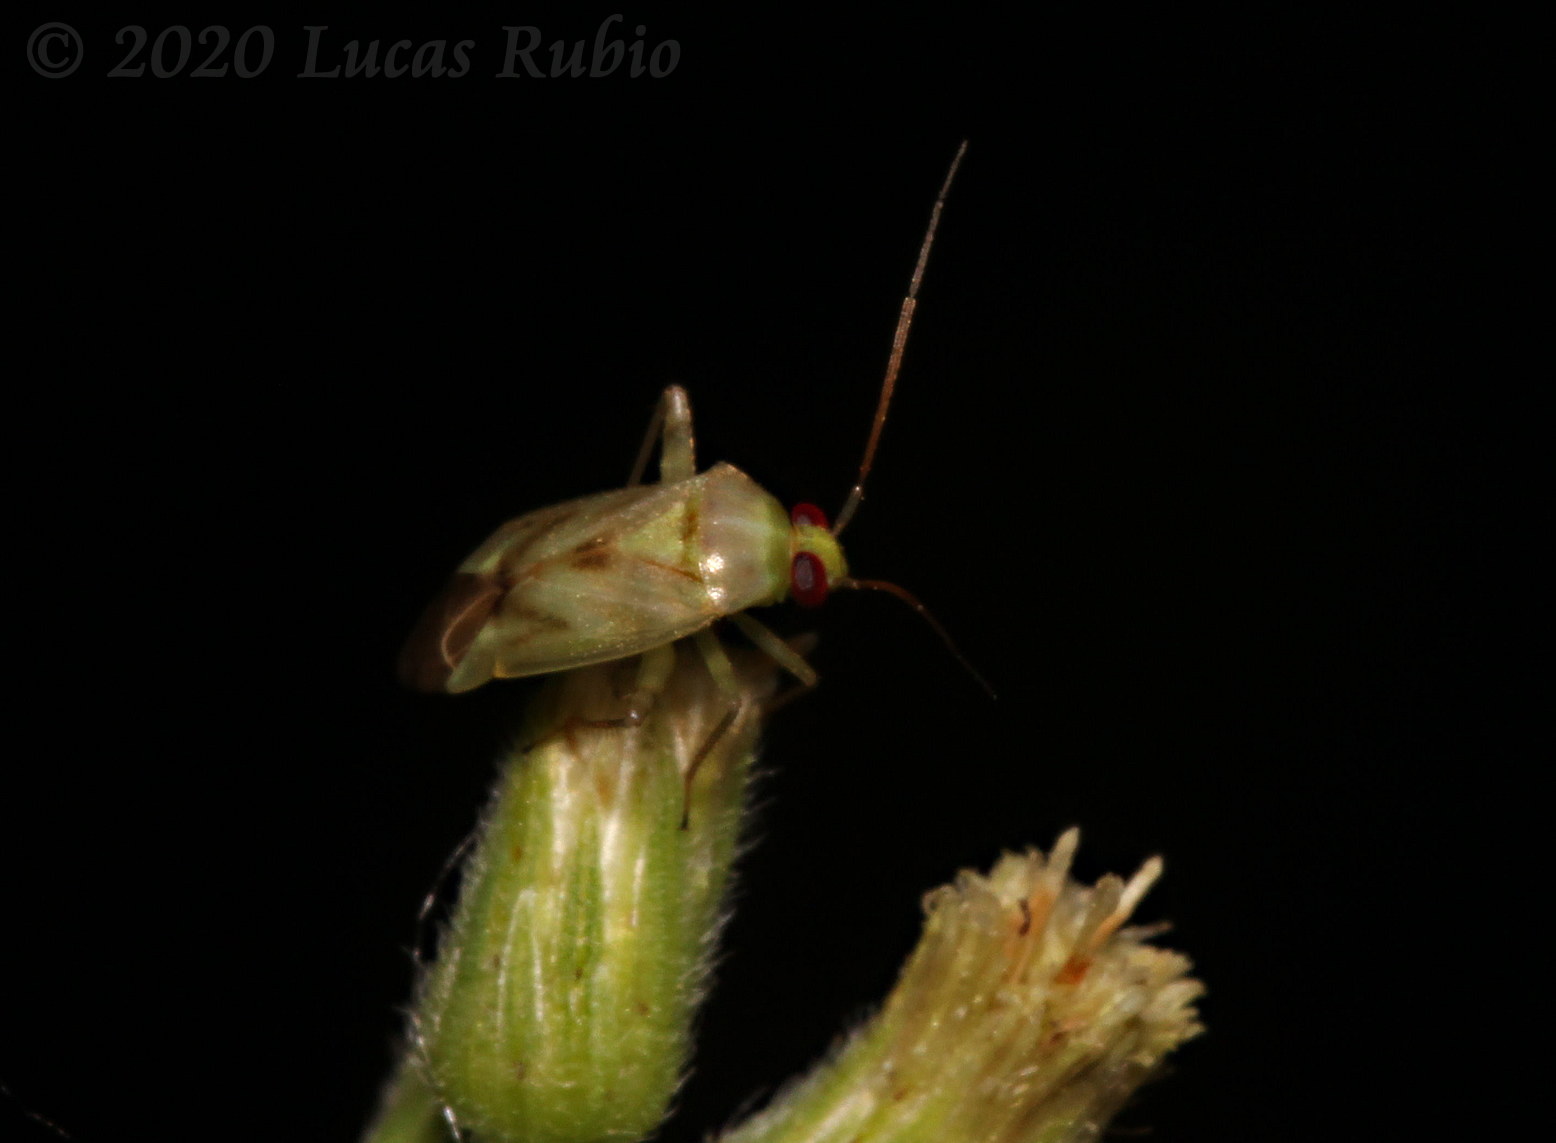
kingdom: Animalia
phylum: Arthropoda
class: Insecta
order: Hemiptera
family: Miridae
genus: Taylorilygus
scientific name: Taylorilygus apicalis
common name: Plant bug
